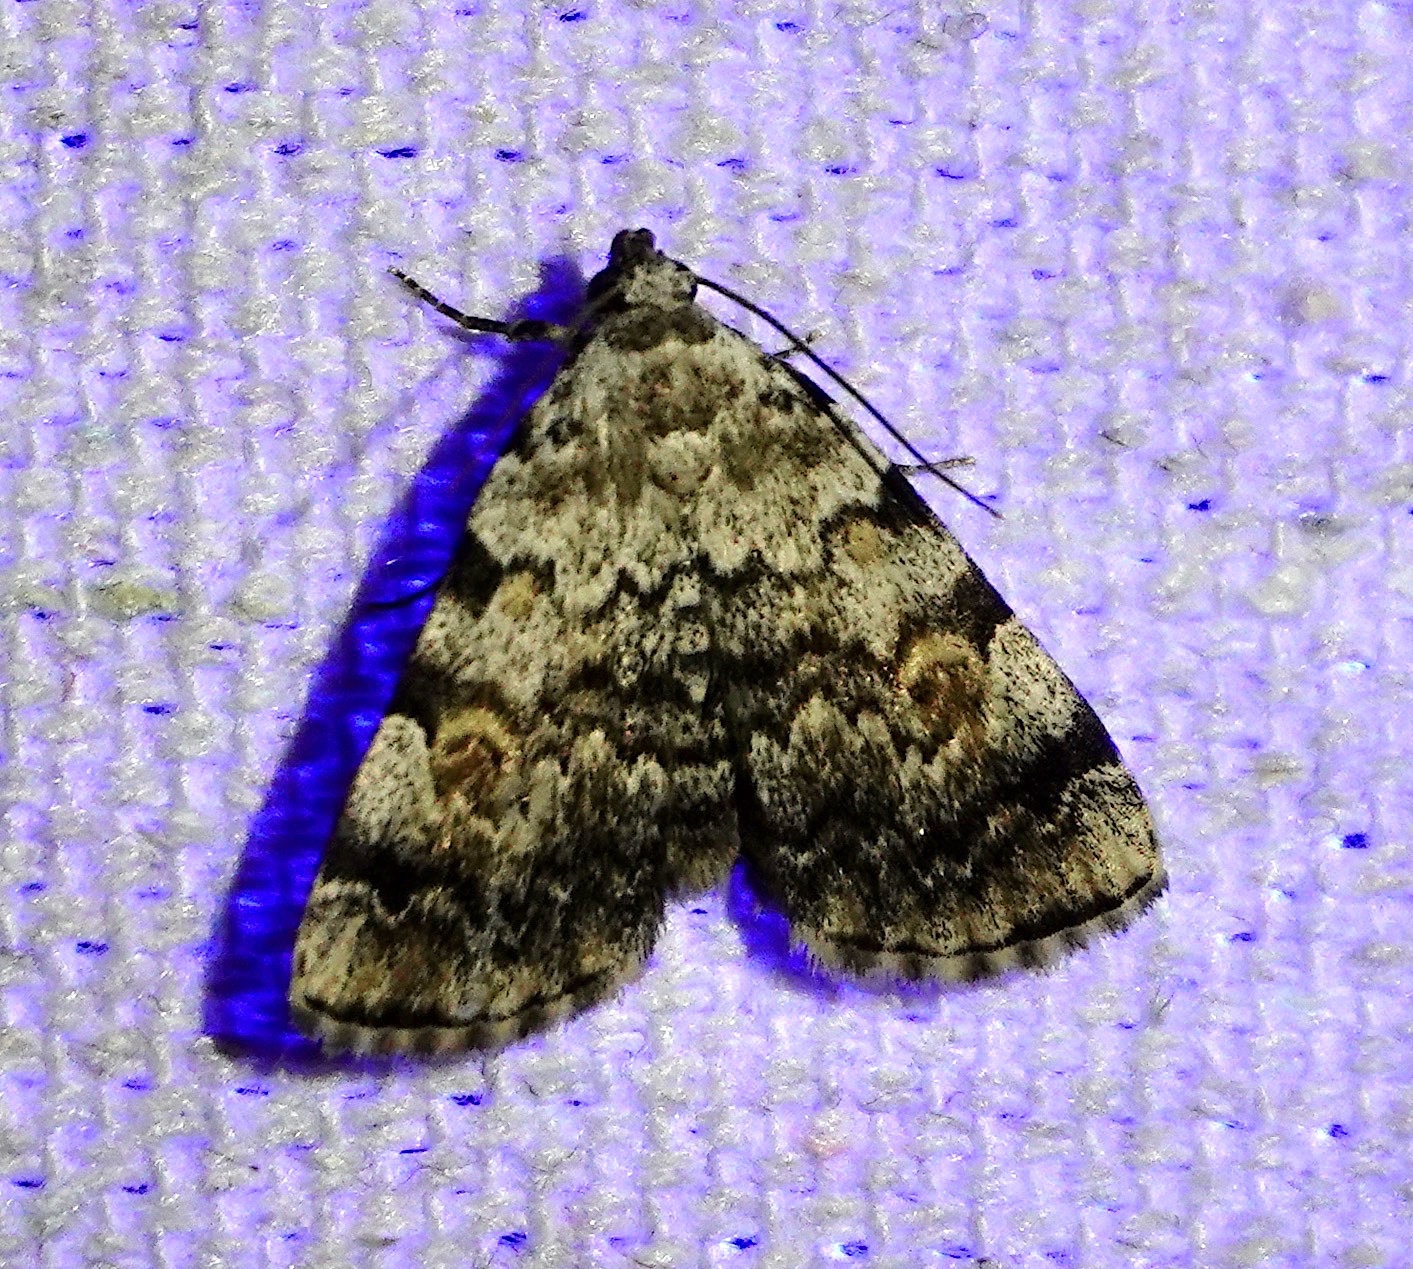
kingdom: Animalia
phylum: Arthropoda
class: Insecta
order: Lepidoptera
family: Erebidae
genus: Idia
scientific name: Idia americalis
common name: American idia moth
